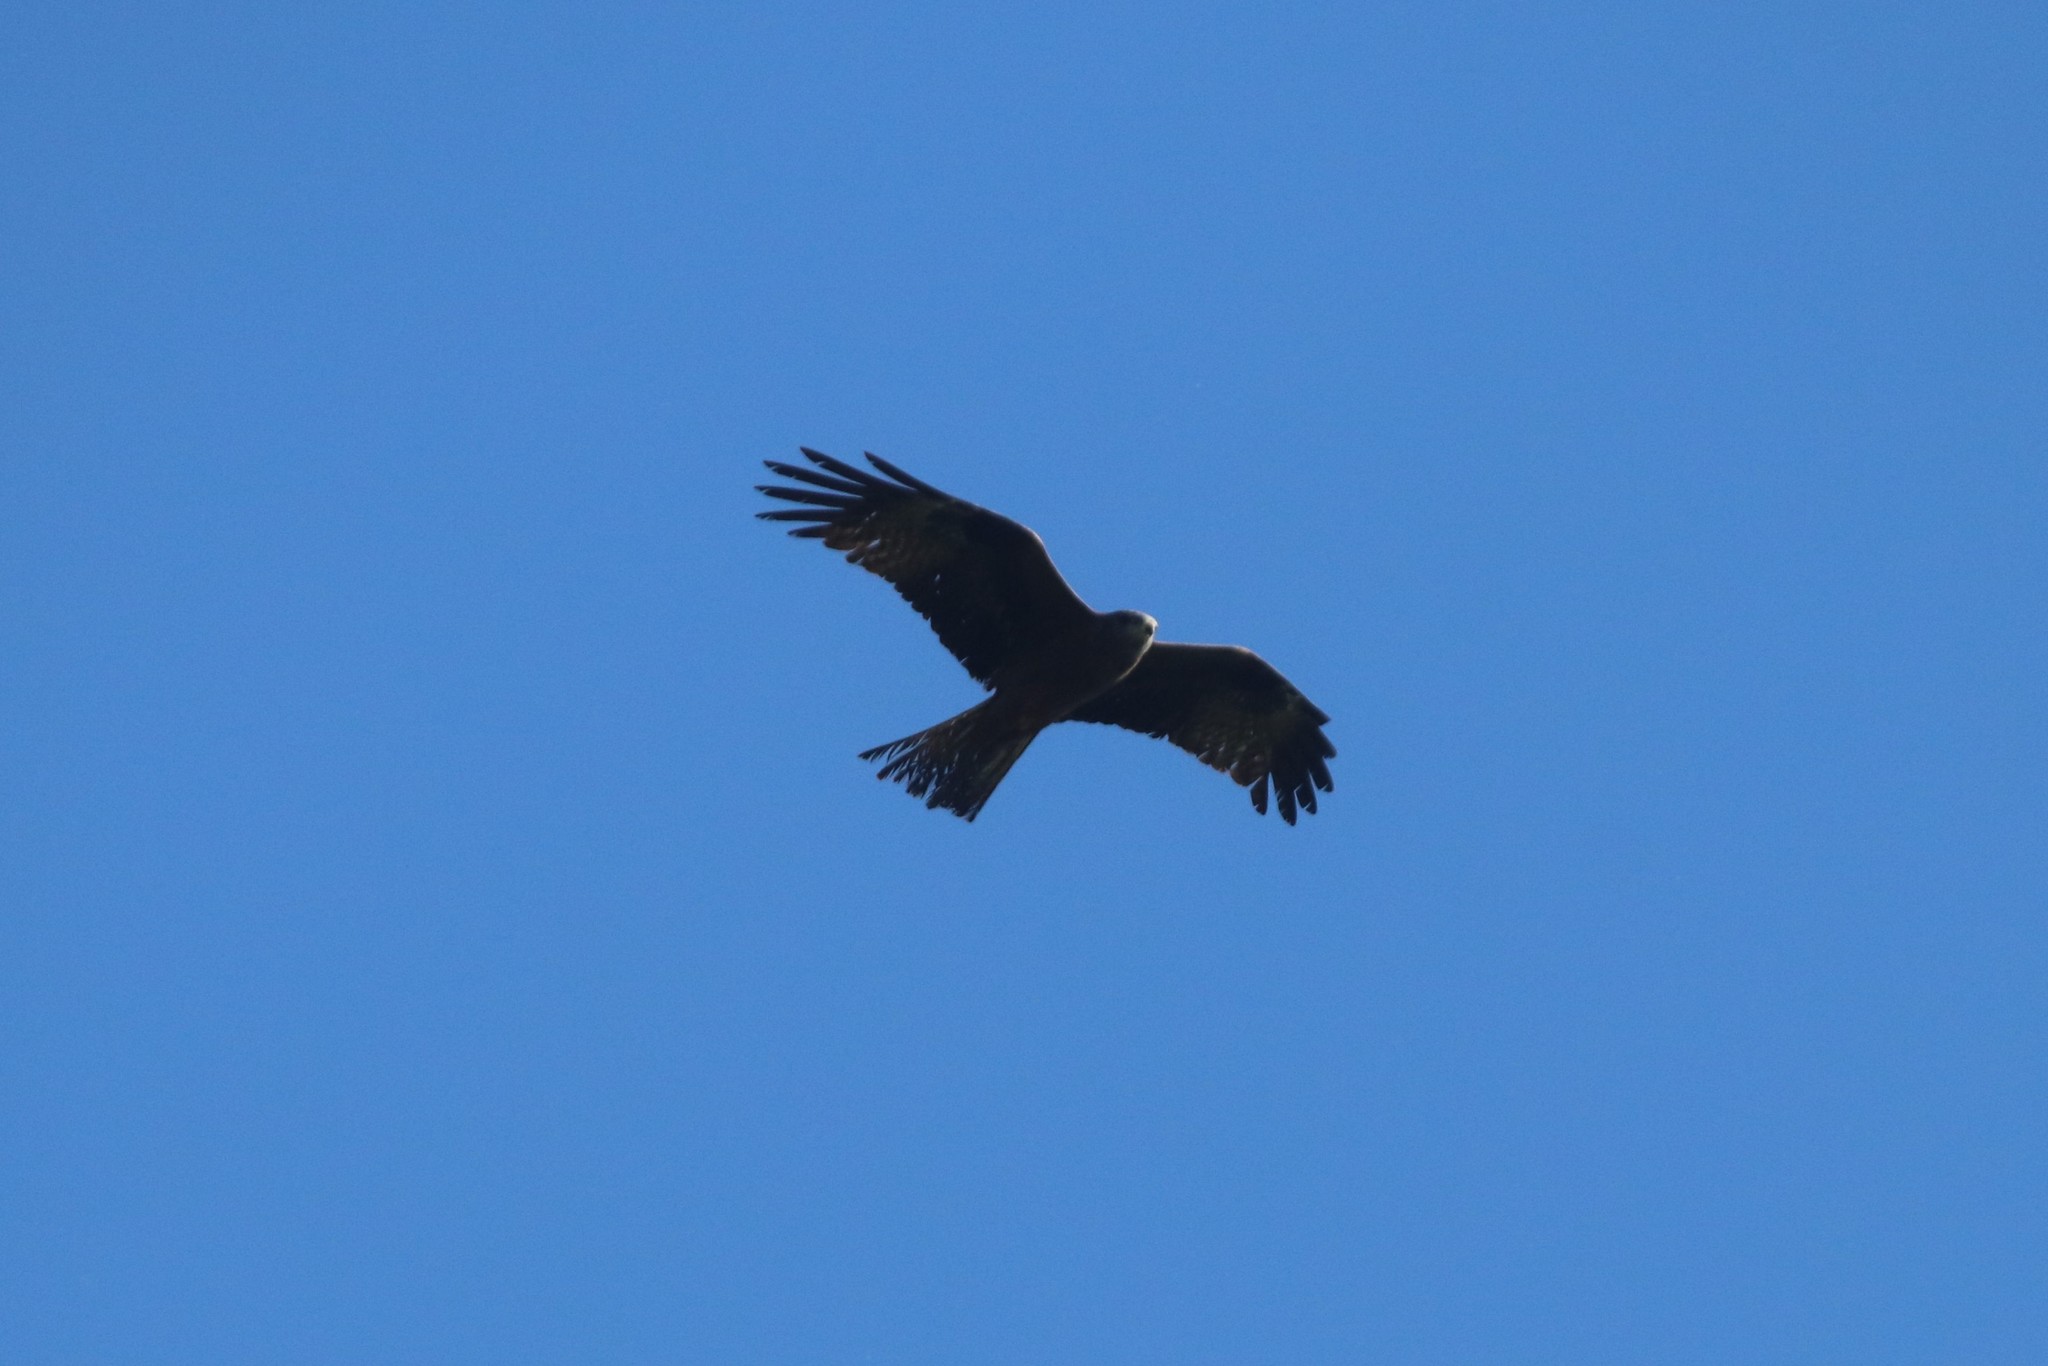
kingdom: Animalia
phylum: Chordata
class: Aves
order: Accipitriformes
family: Accipitridae
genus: Milvus
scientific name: Milvus migrans
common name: Black kite
